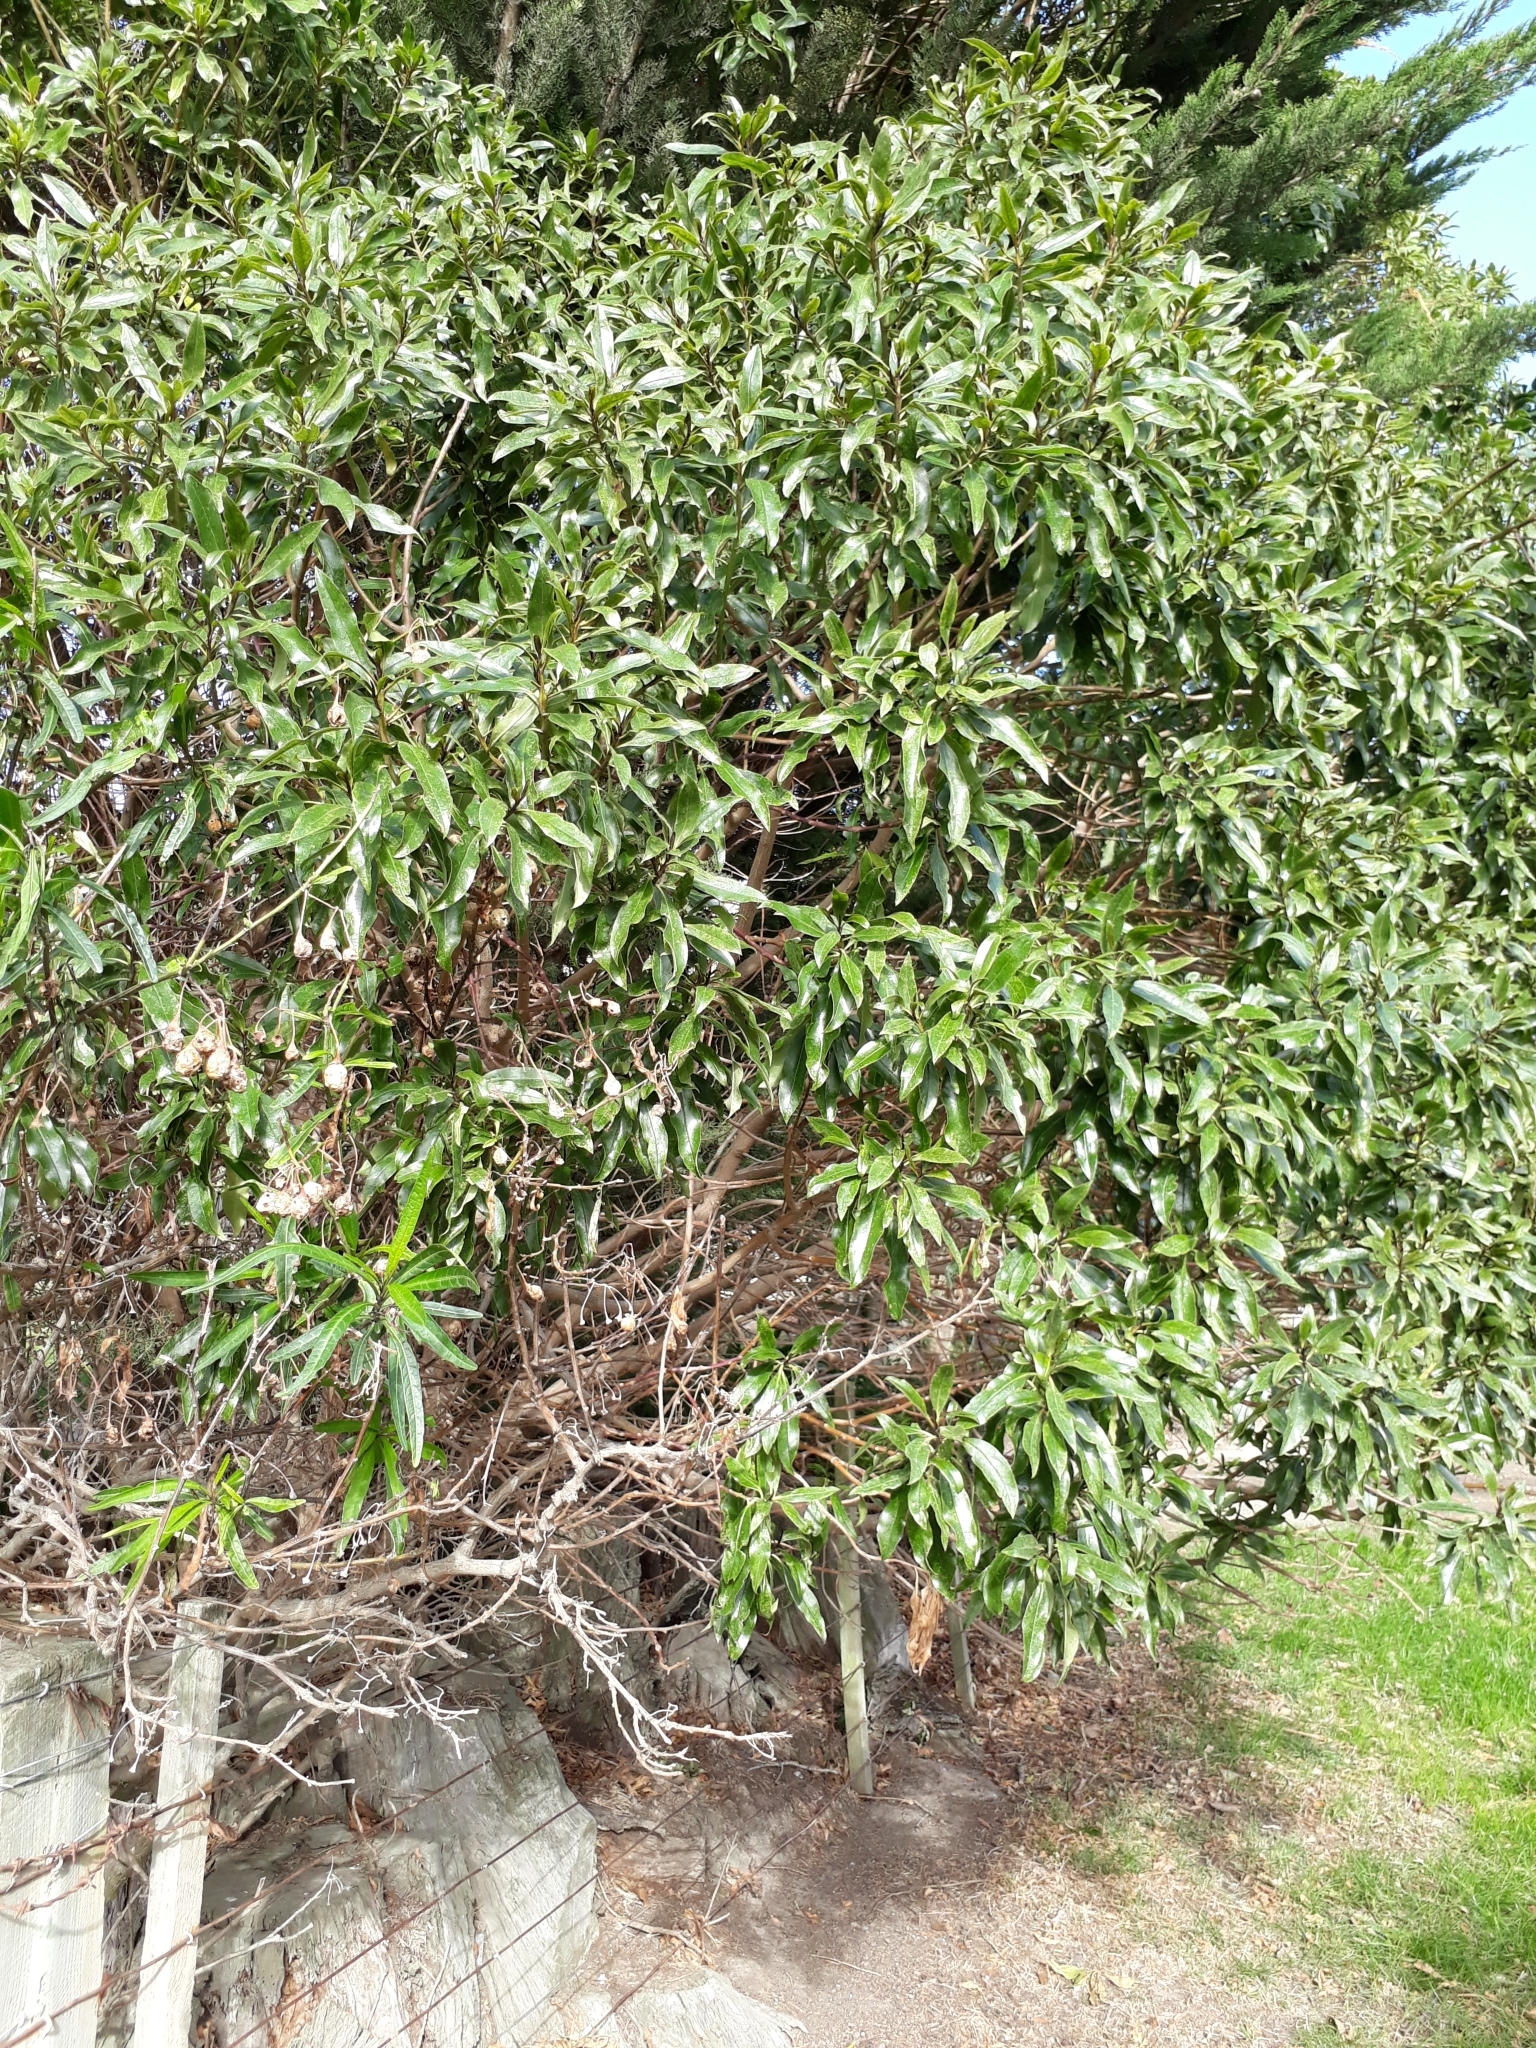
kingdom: Plantae
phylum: Tracheophyta
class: Magnoliopsida
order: Lamiales
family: Scrophulariaceae
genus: Myoporum
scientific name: Myoporum laetum
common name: Ngaio tree
